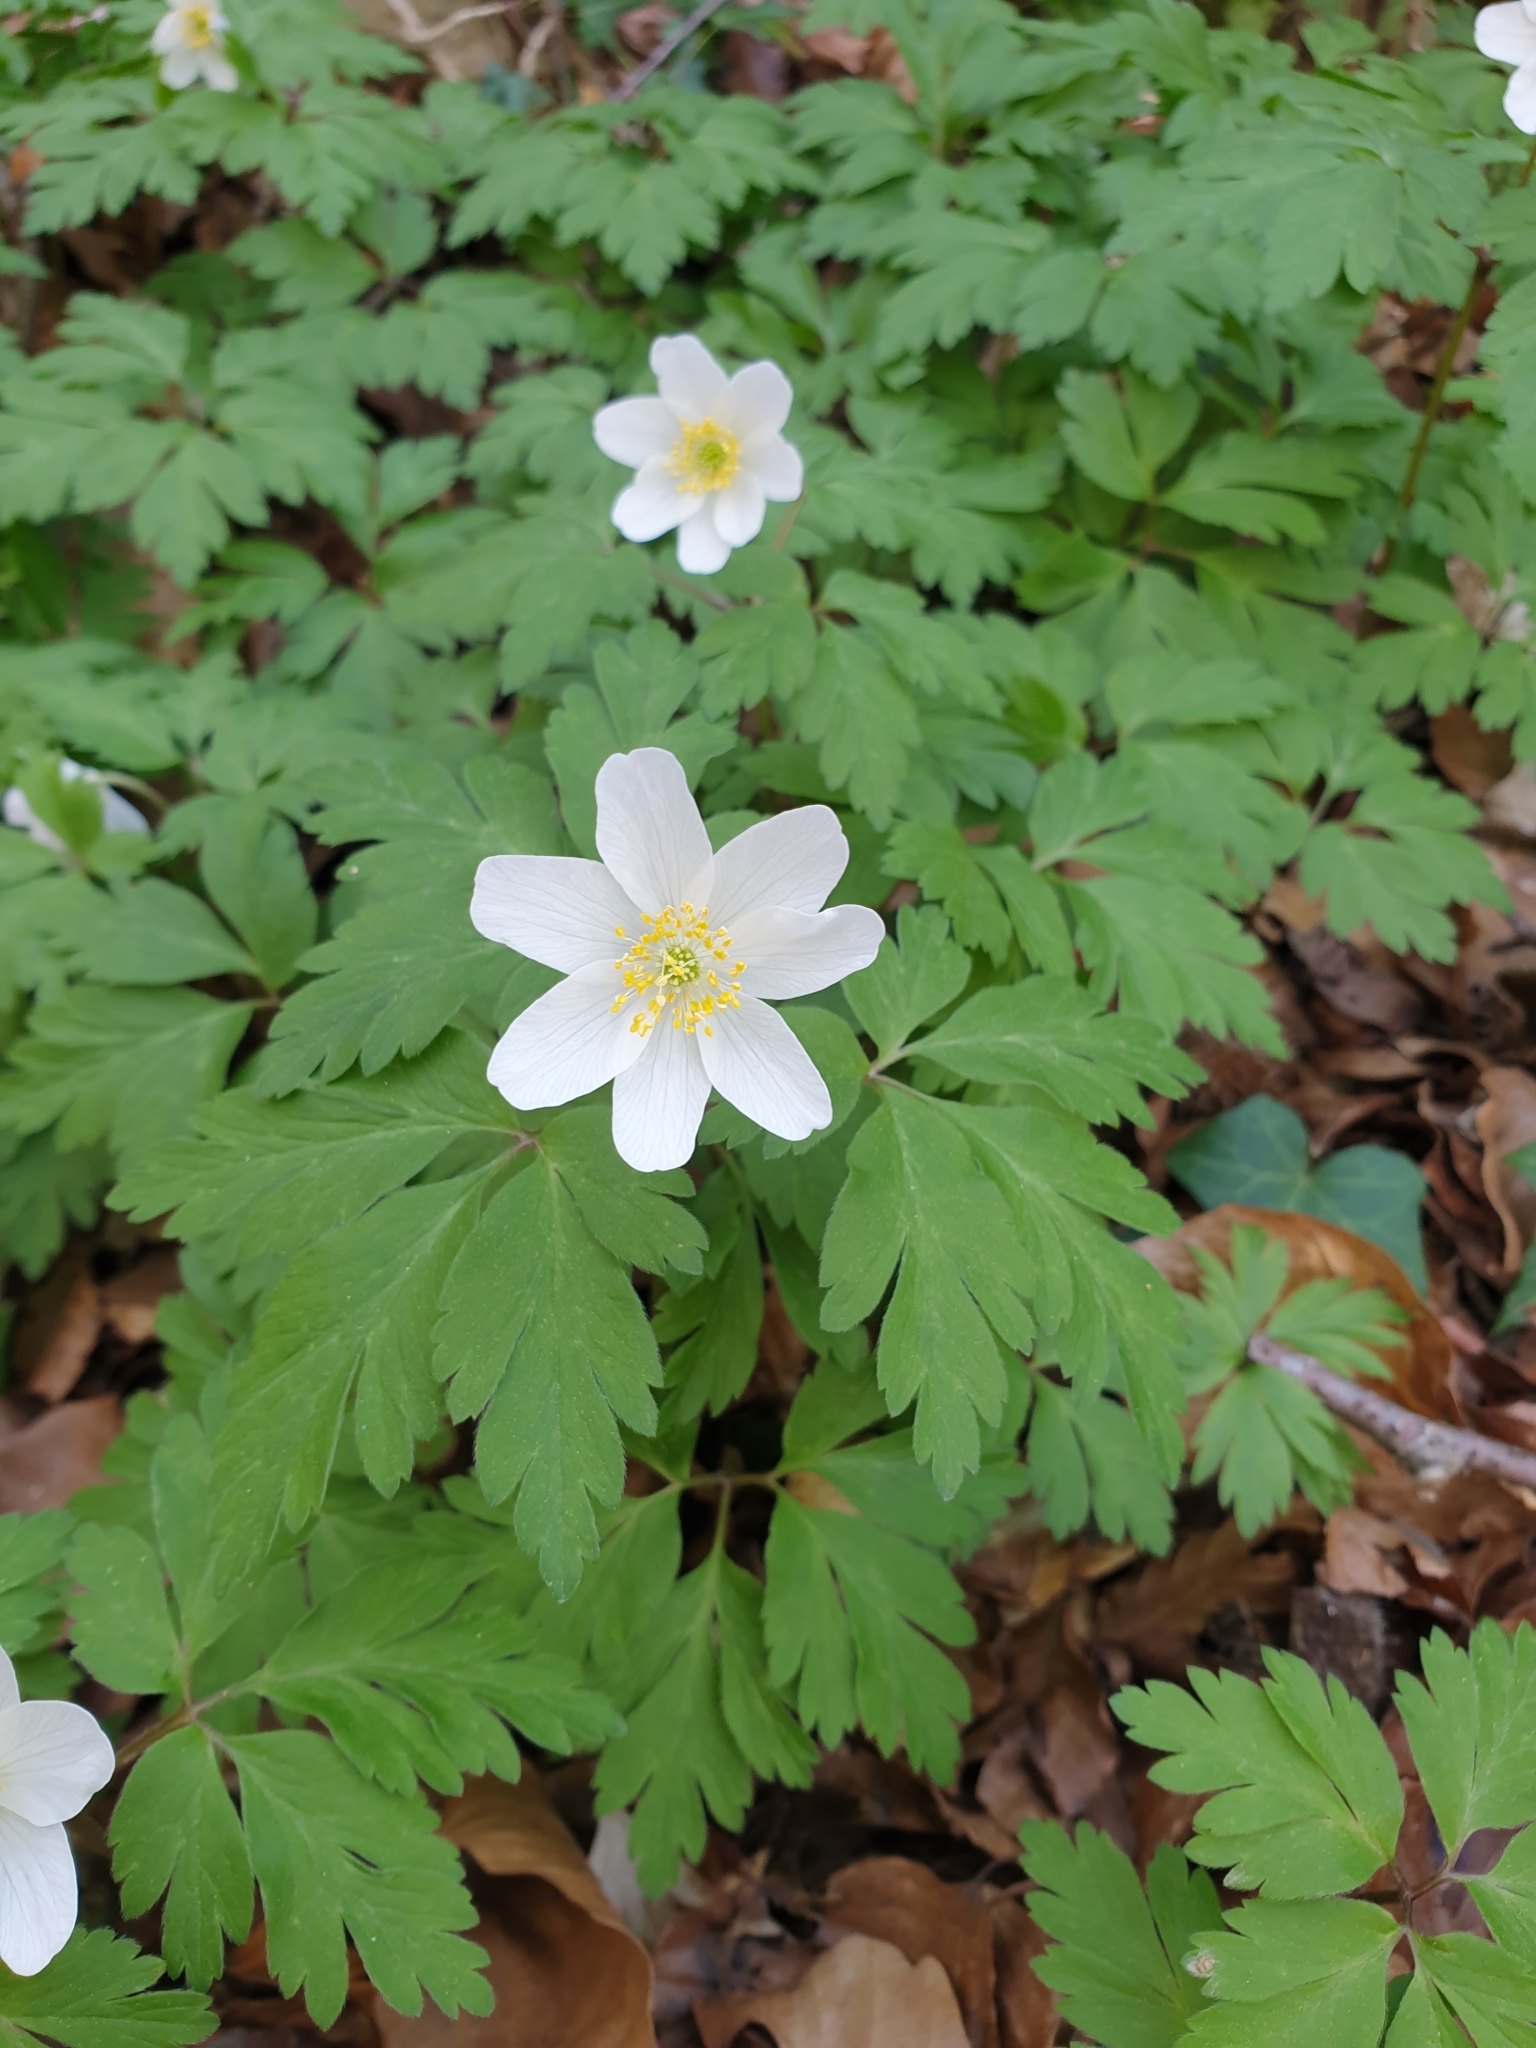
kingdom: Plantae
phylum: Tracheophyta
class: Magnoliopsida
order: Ranunculales
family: Ranunculaceae
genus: Anemone
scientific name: Anemone nemorosa
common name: Wood anemone
